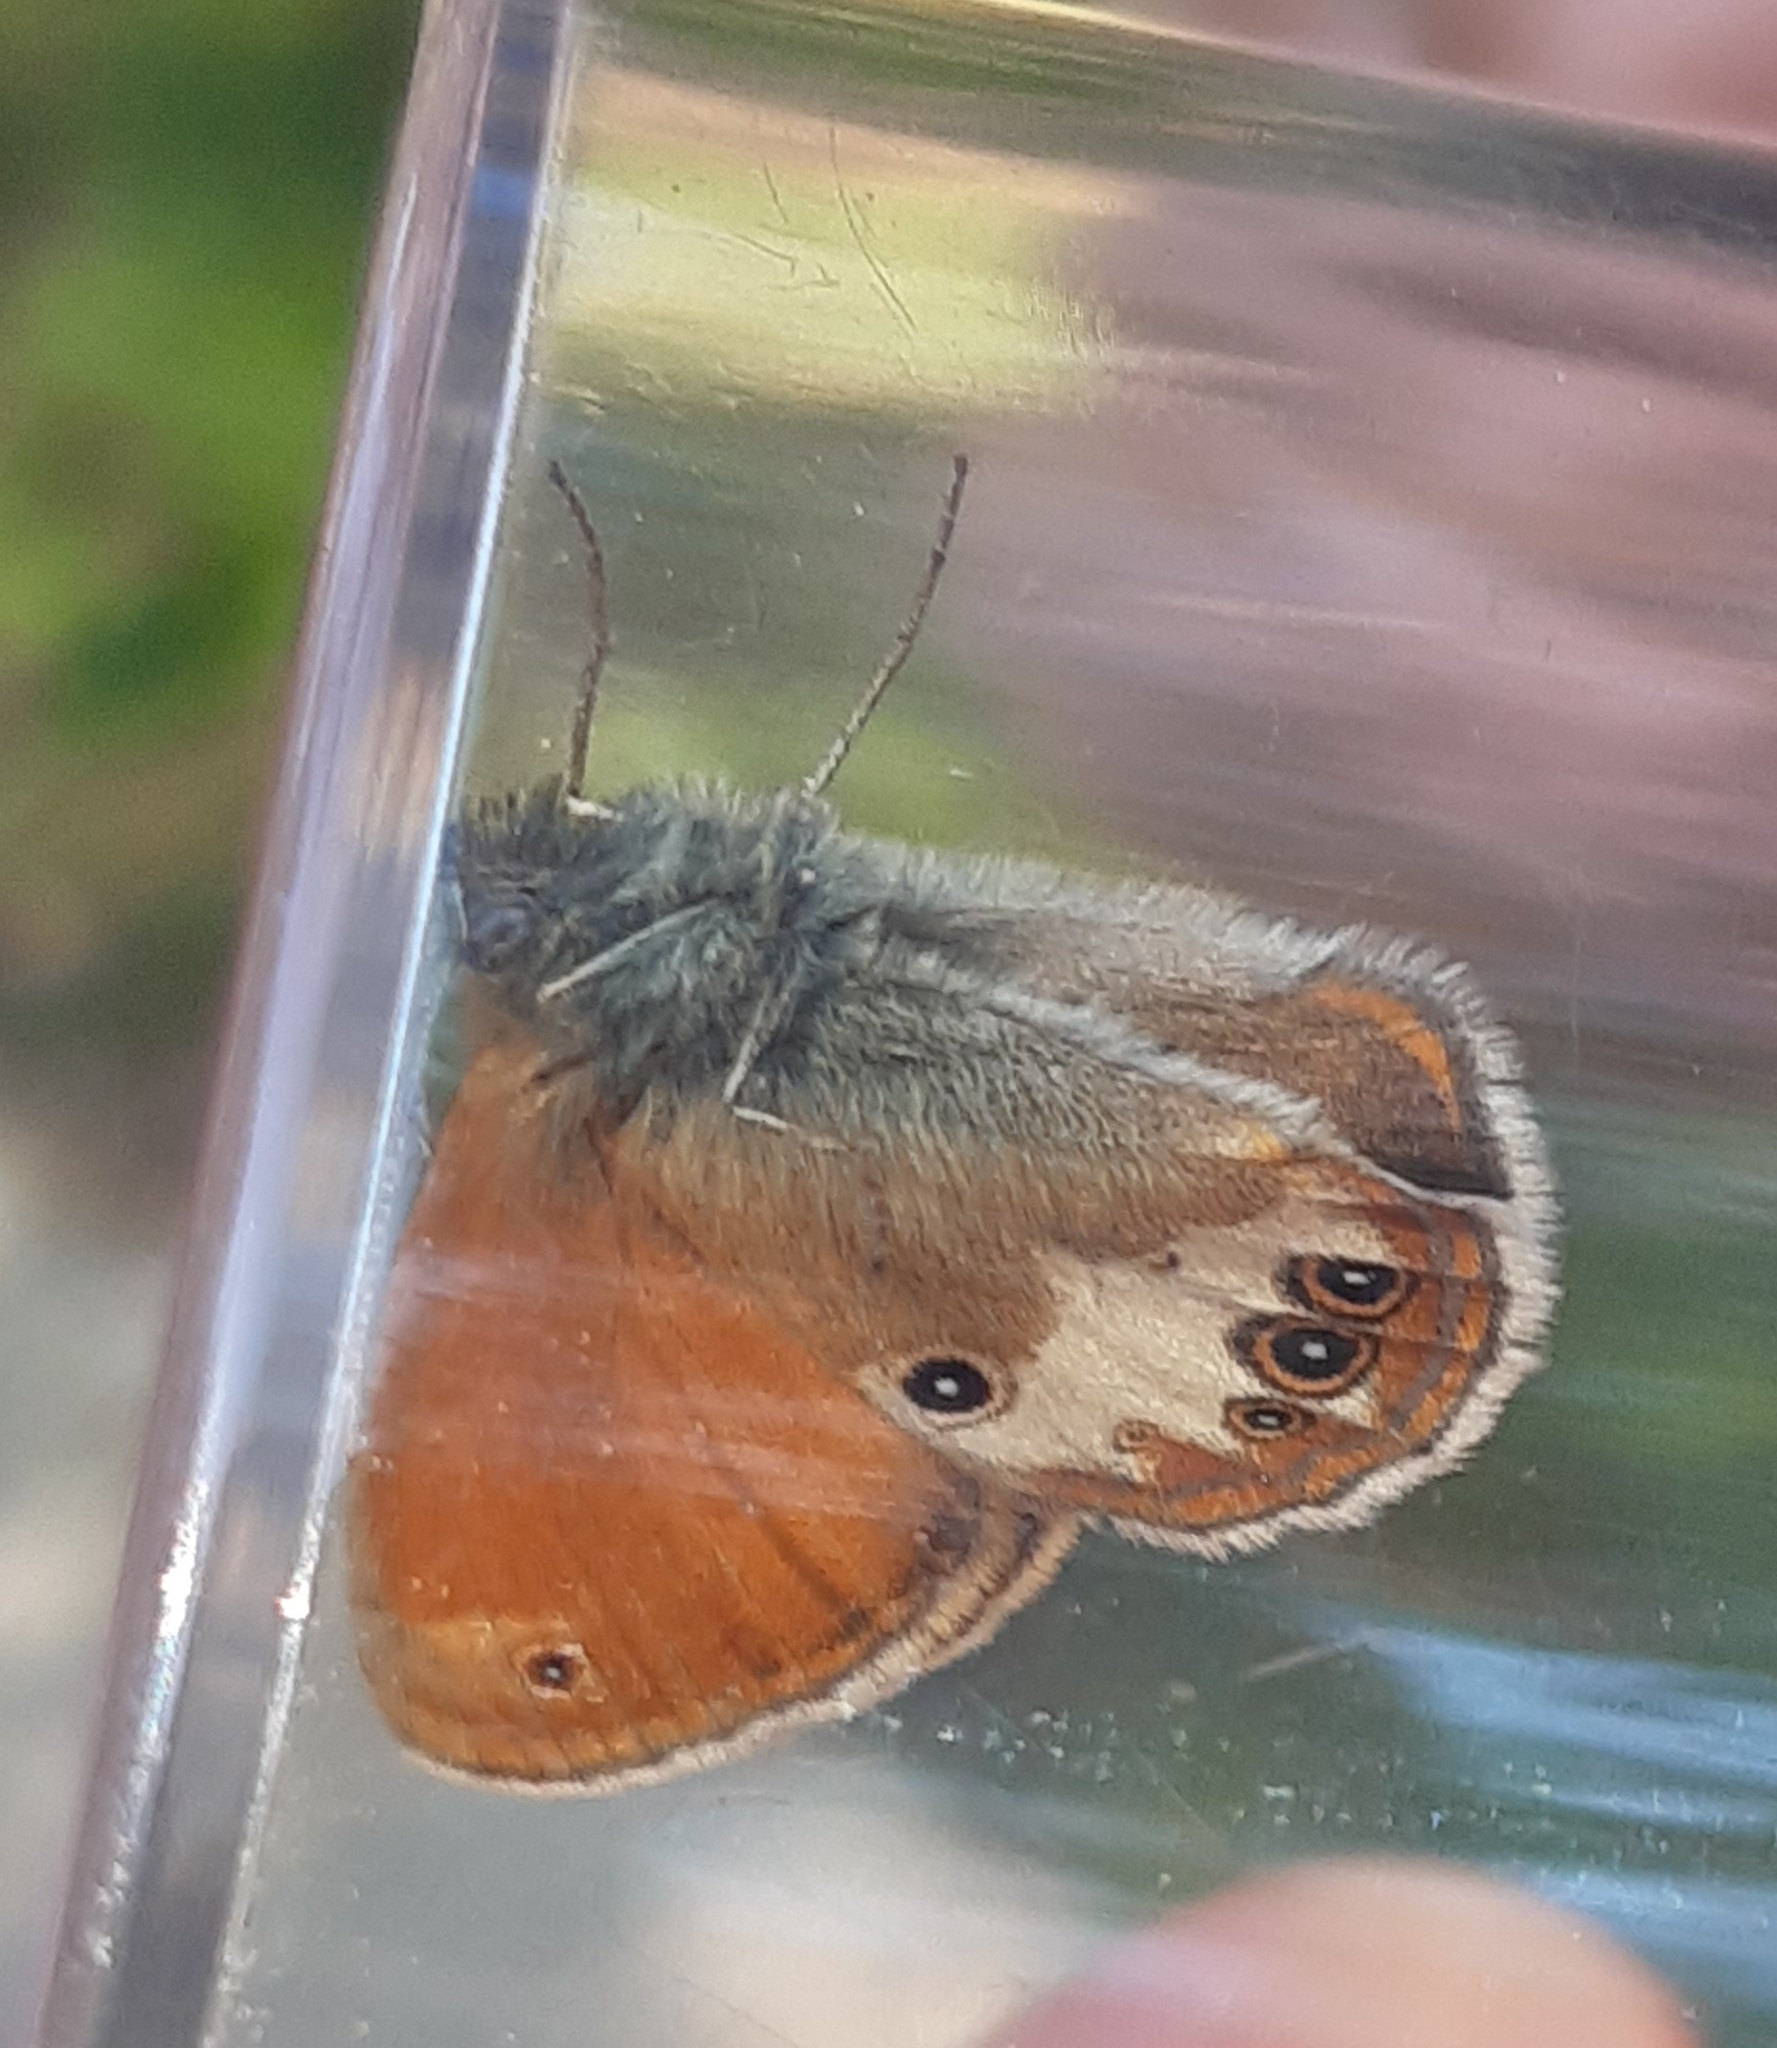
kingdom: Animalia
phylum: Arthropoda
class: Insecta
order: Lepidoptera
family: Nymphalidae
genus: Coenonympha
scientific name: Coenonympha arcania
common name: Pearly heath
